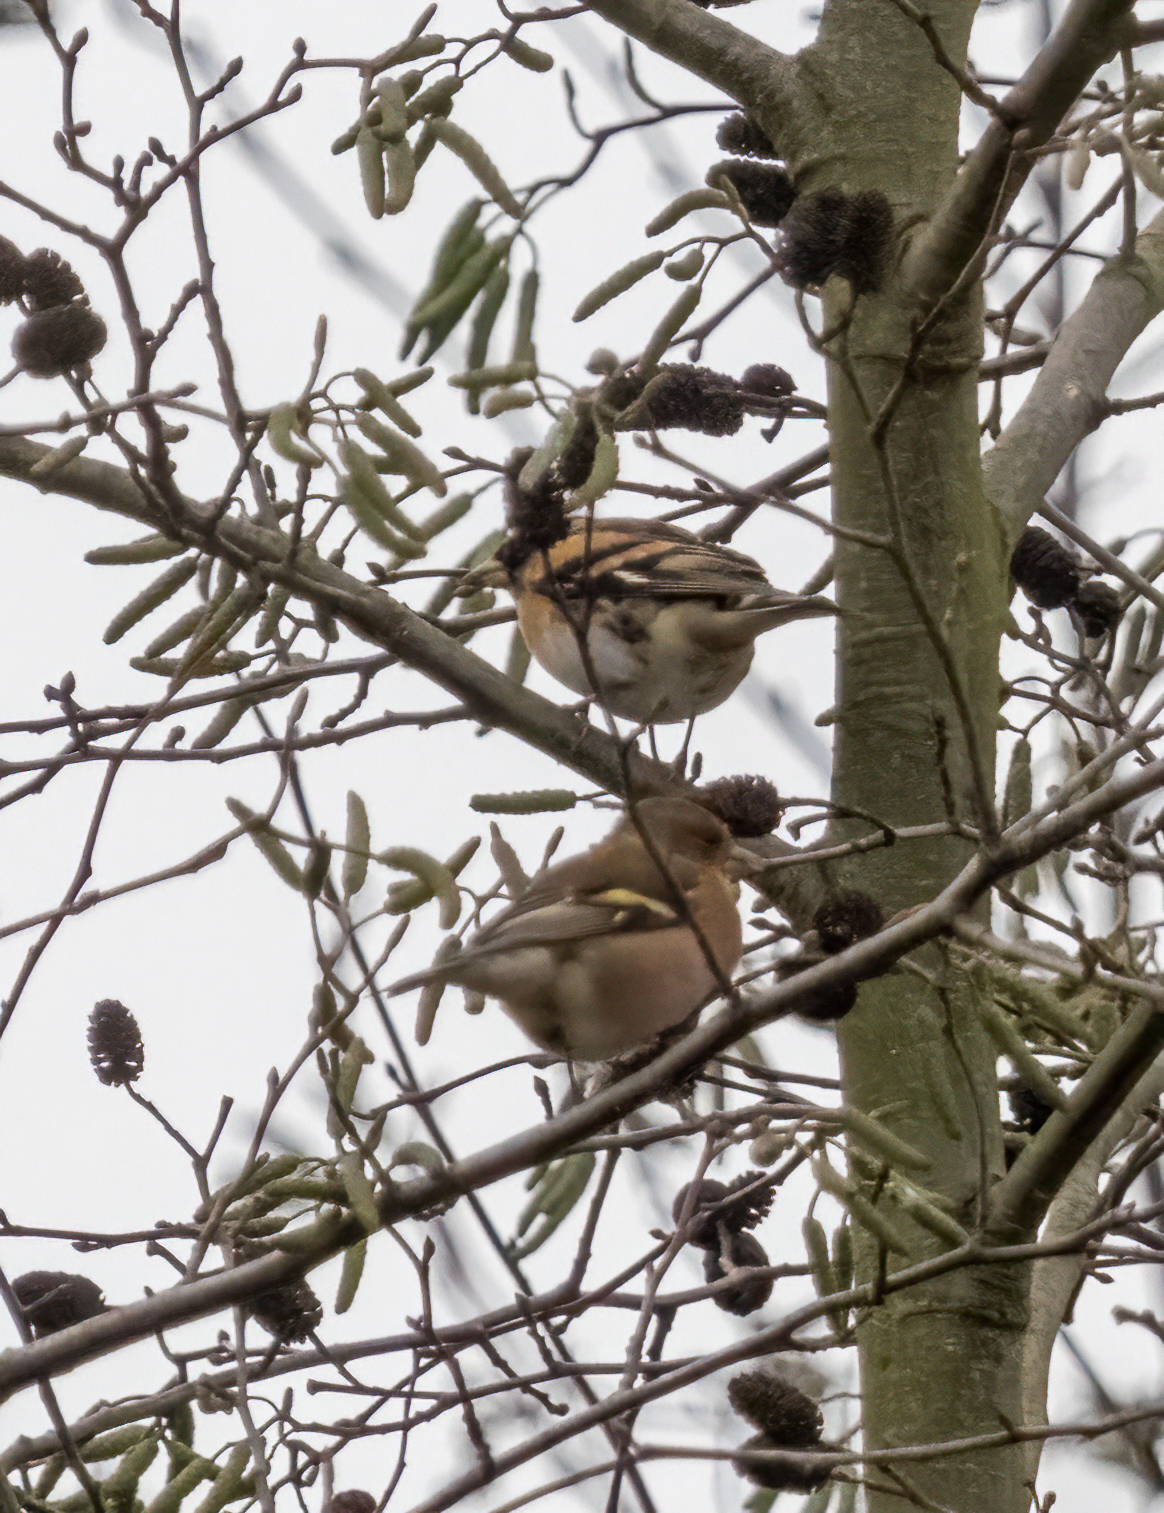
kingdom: Animalia
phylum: Chordata
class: Aves
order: Passeriformes
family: Fringillidae
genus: Fringilla
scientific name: Fringilla montifringilla
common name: Brambling
